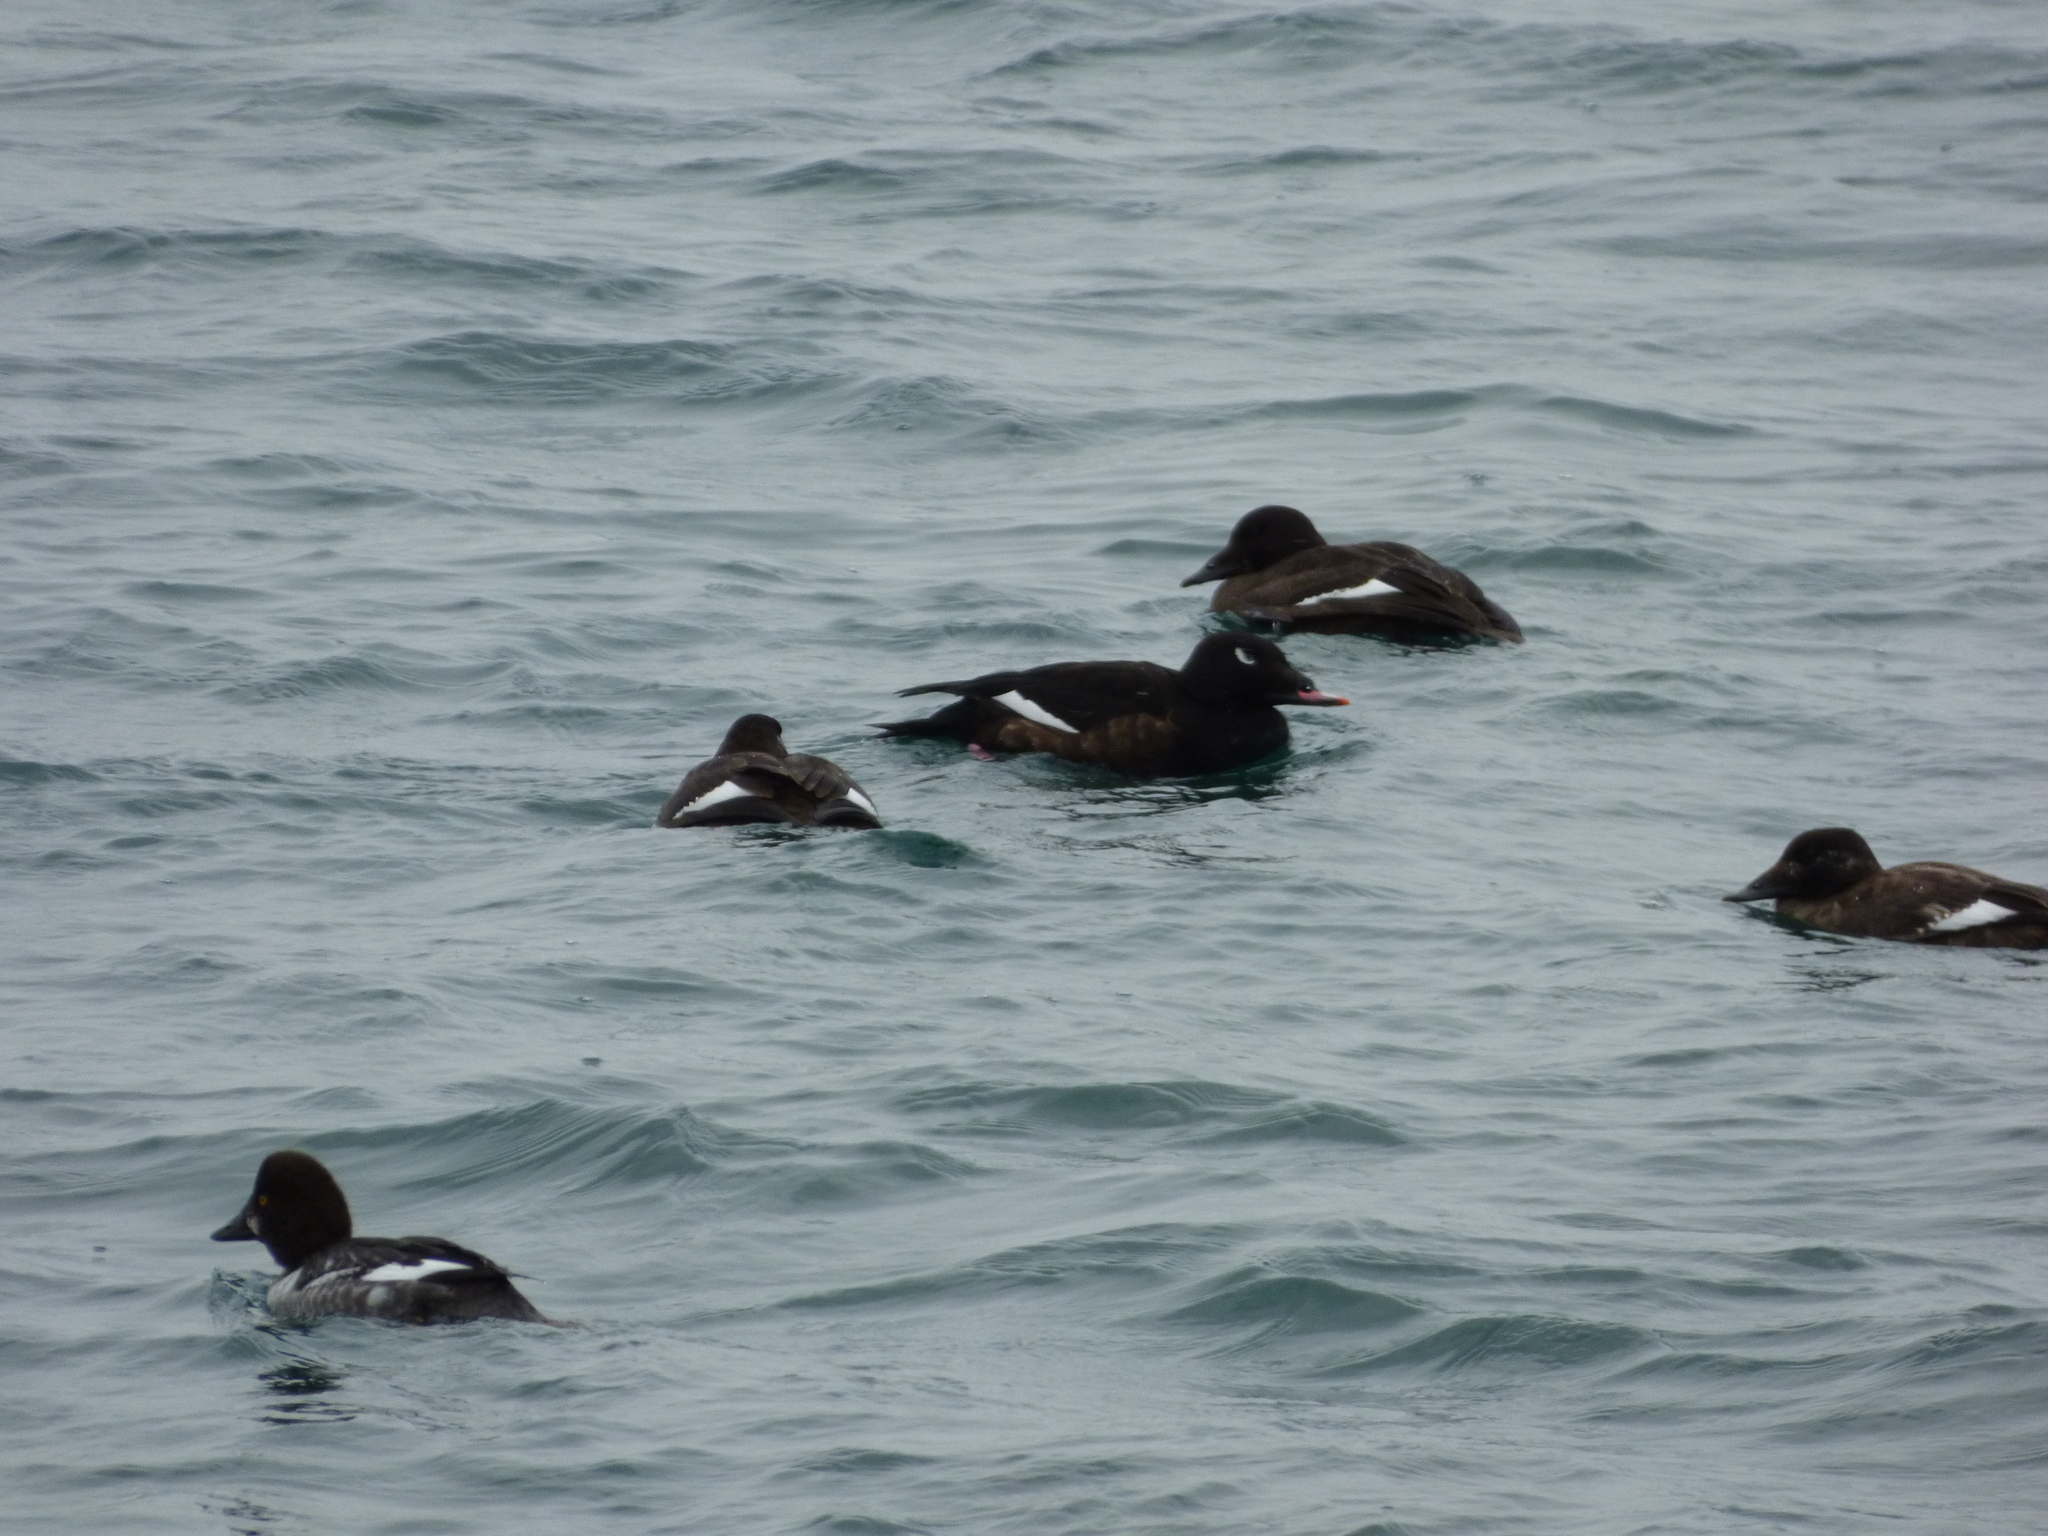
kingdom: Animalia
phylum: Chordata
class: Aves
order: Anseriformes
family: Anatidae
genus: Melanitta
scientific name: Melanitta deglandi
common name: White-winged scoter
